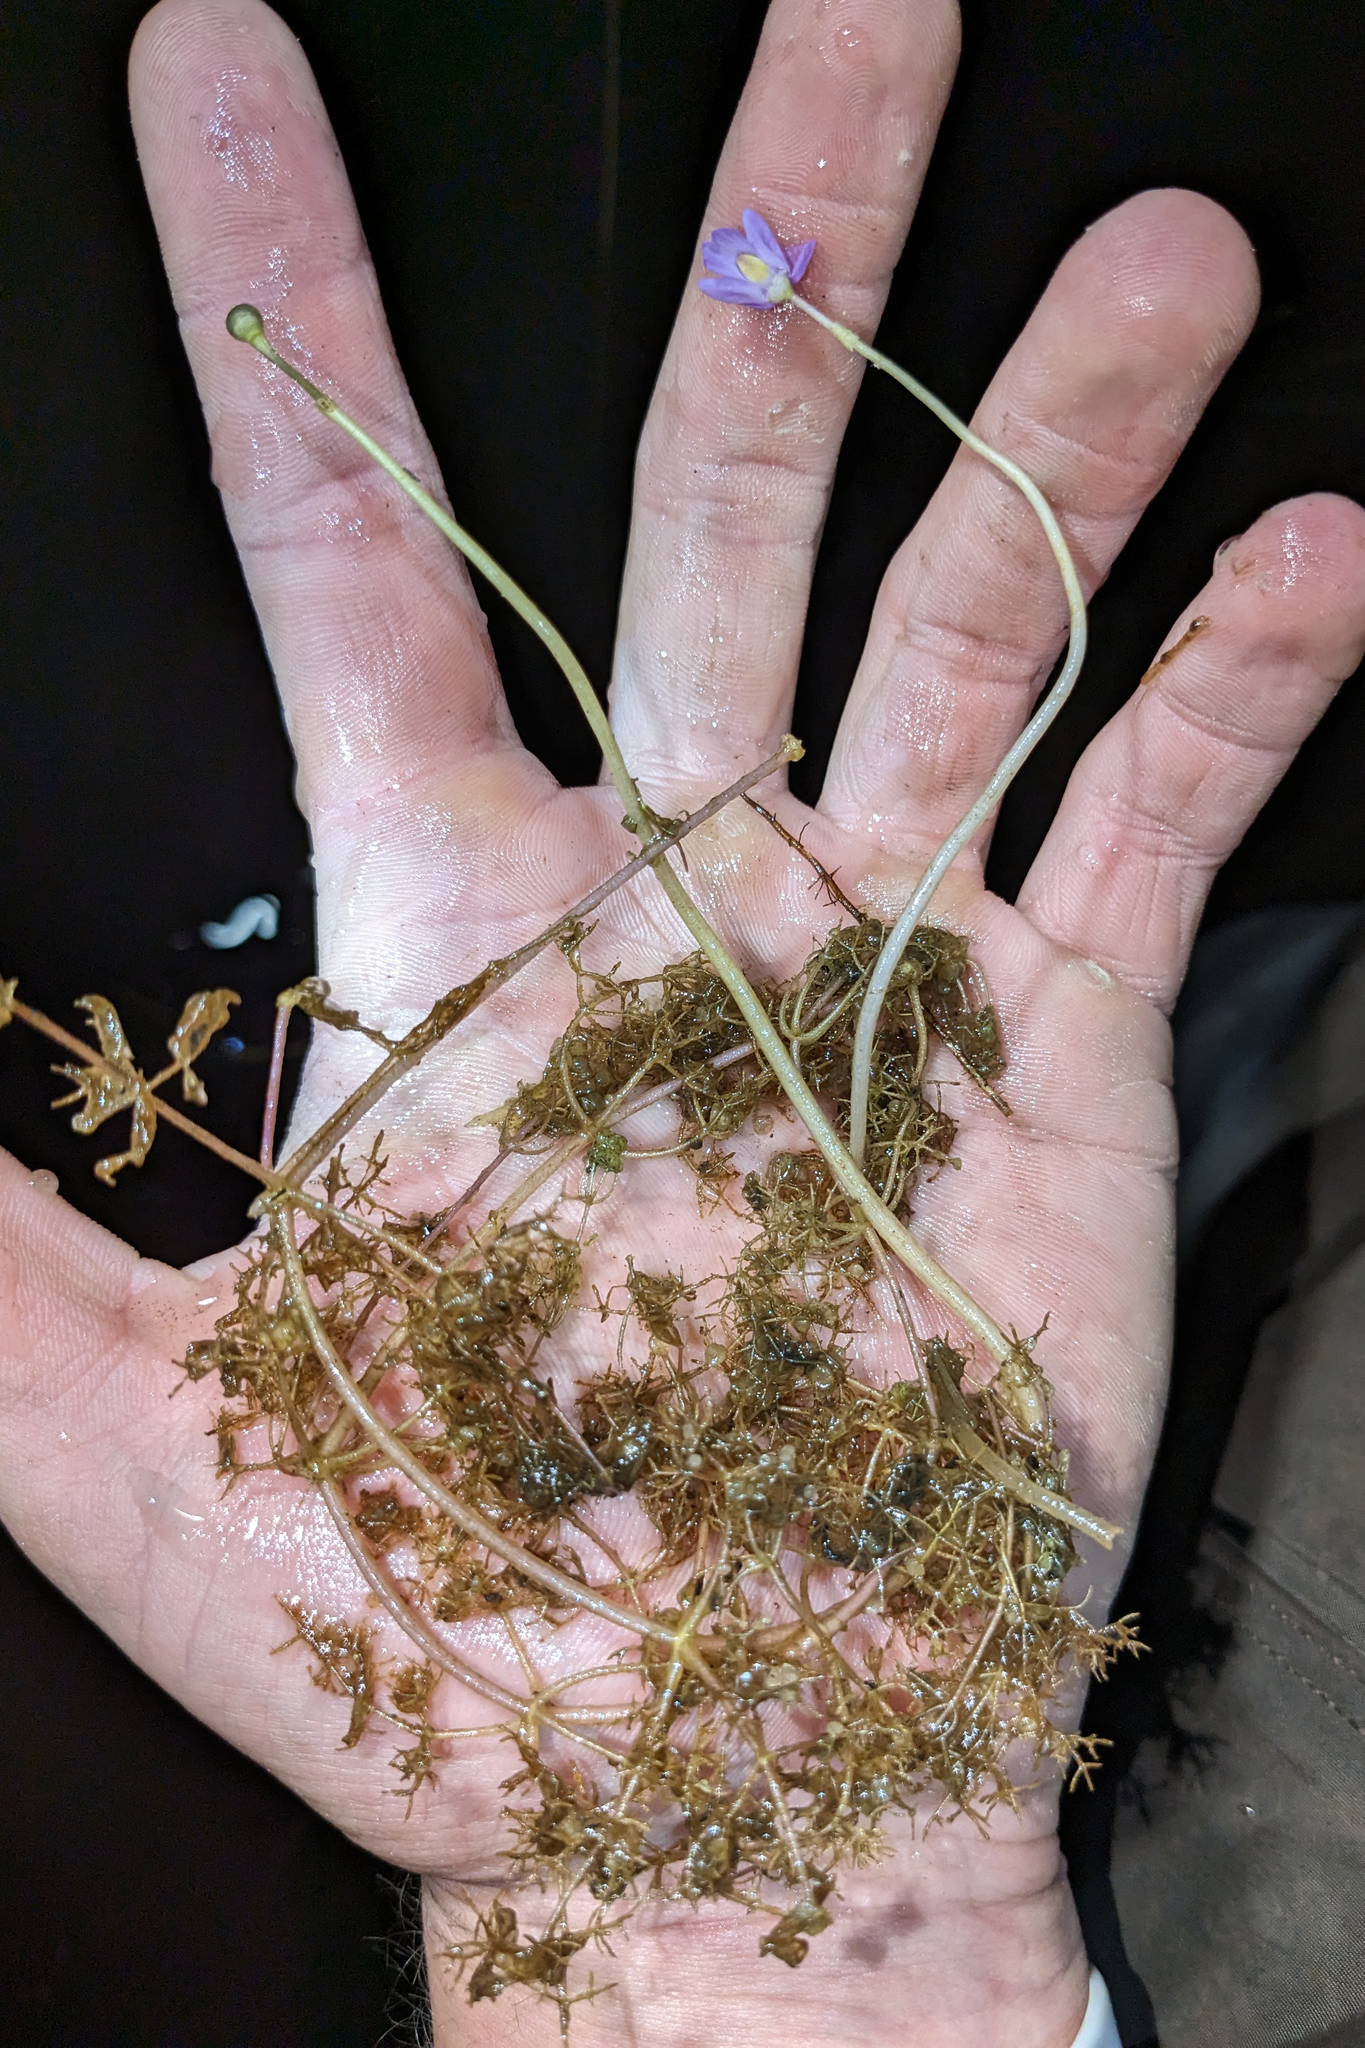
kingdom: Plantae
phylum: Tracheophyta
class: Magnoliopsida
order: Lamiales
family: Lentibulariaceae
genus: Utricularia
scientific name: Utricularia purpurea
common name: Eastern purple bladderwort
